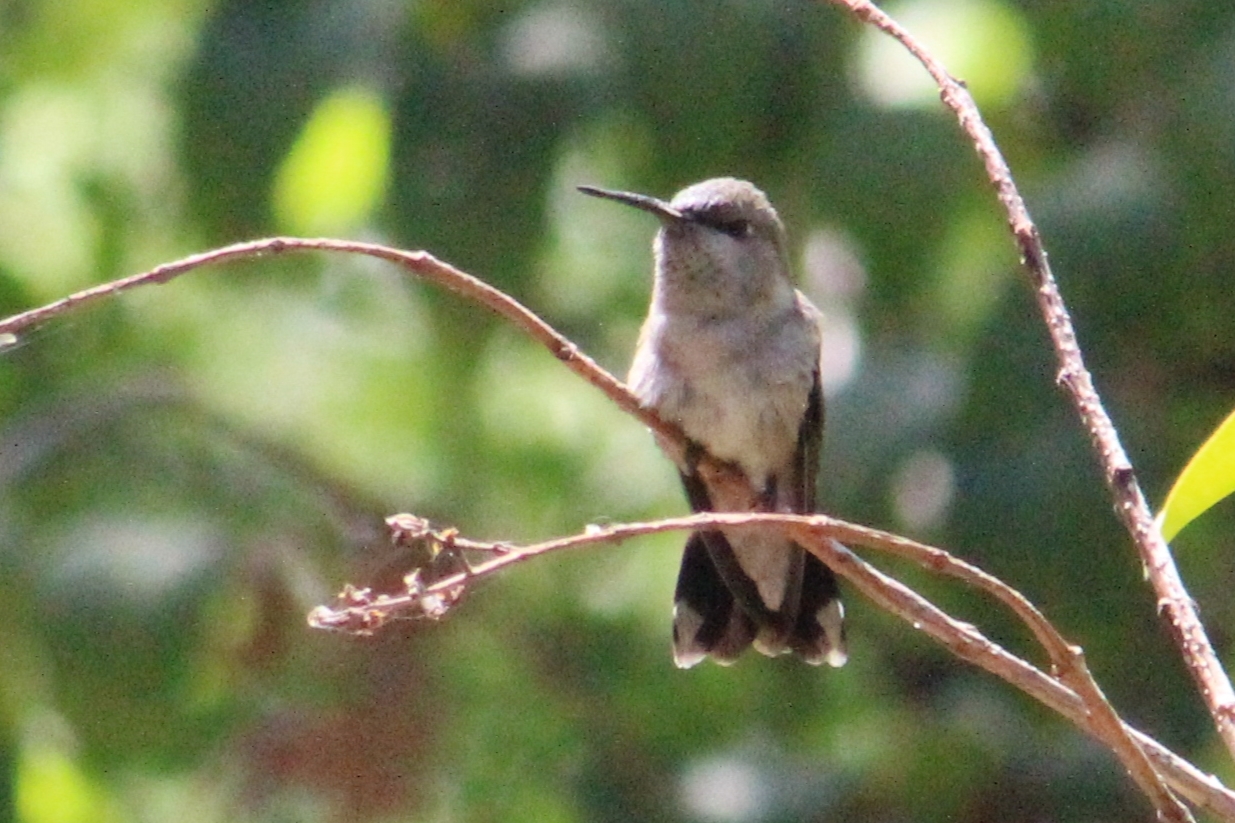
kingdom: Animalia
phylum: Chordata
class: Aves
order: Apodiformes
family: Trochilidae
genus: Archilochus
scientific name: Archilochus alexandri
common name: Black-chinned hummingbird
